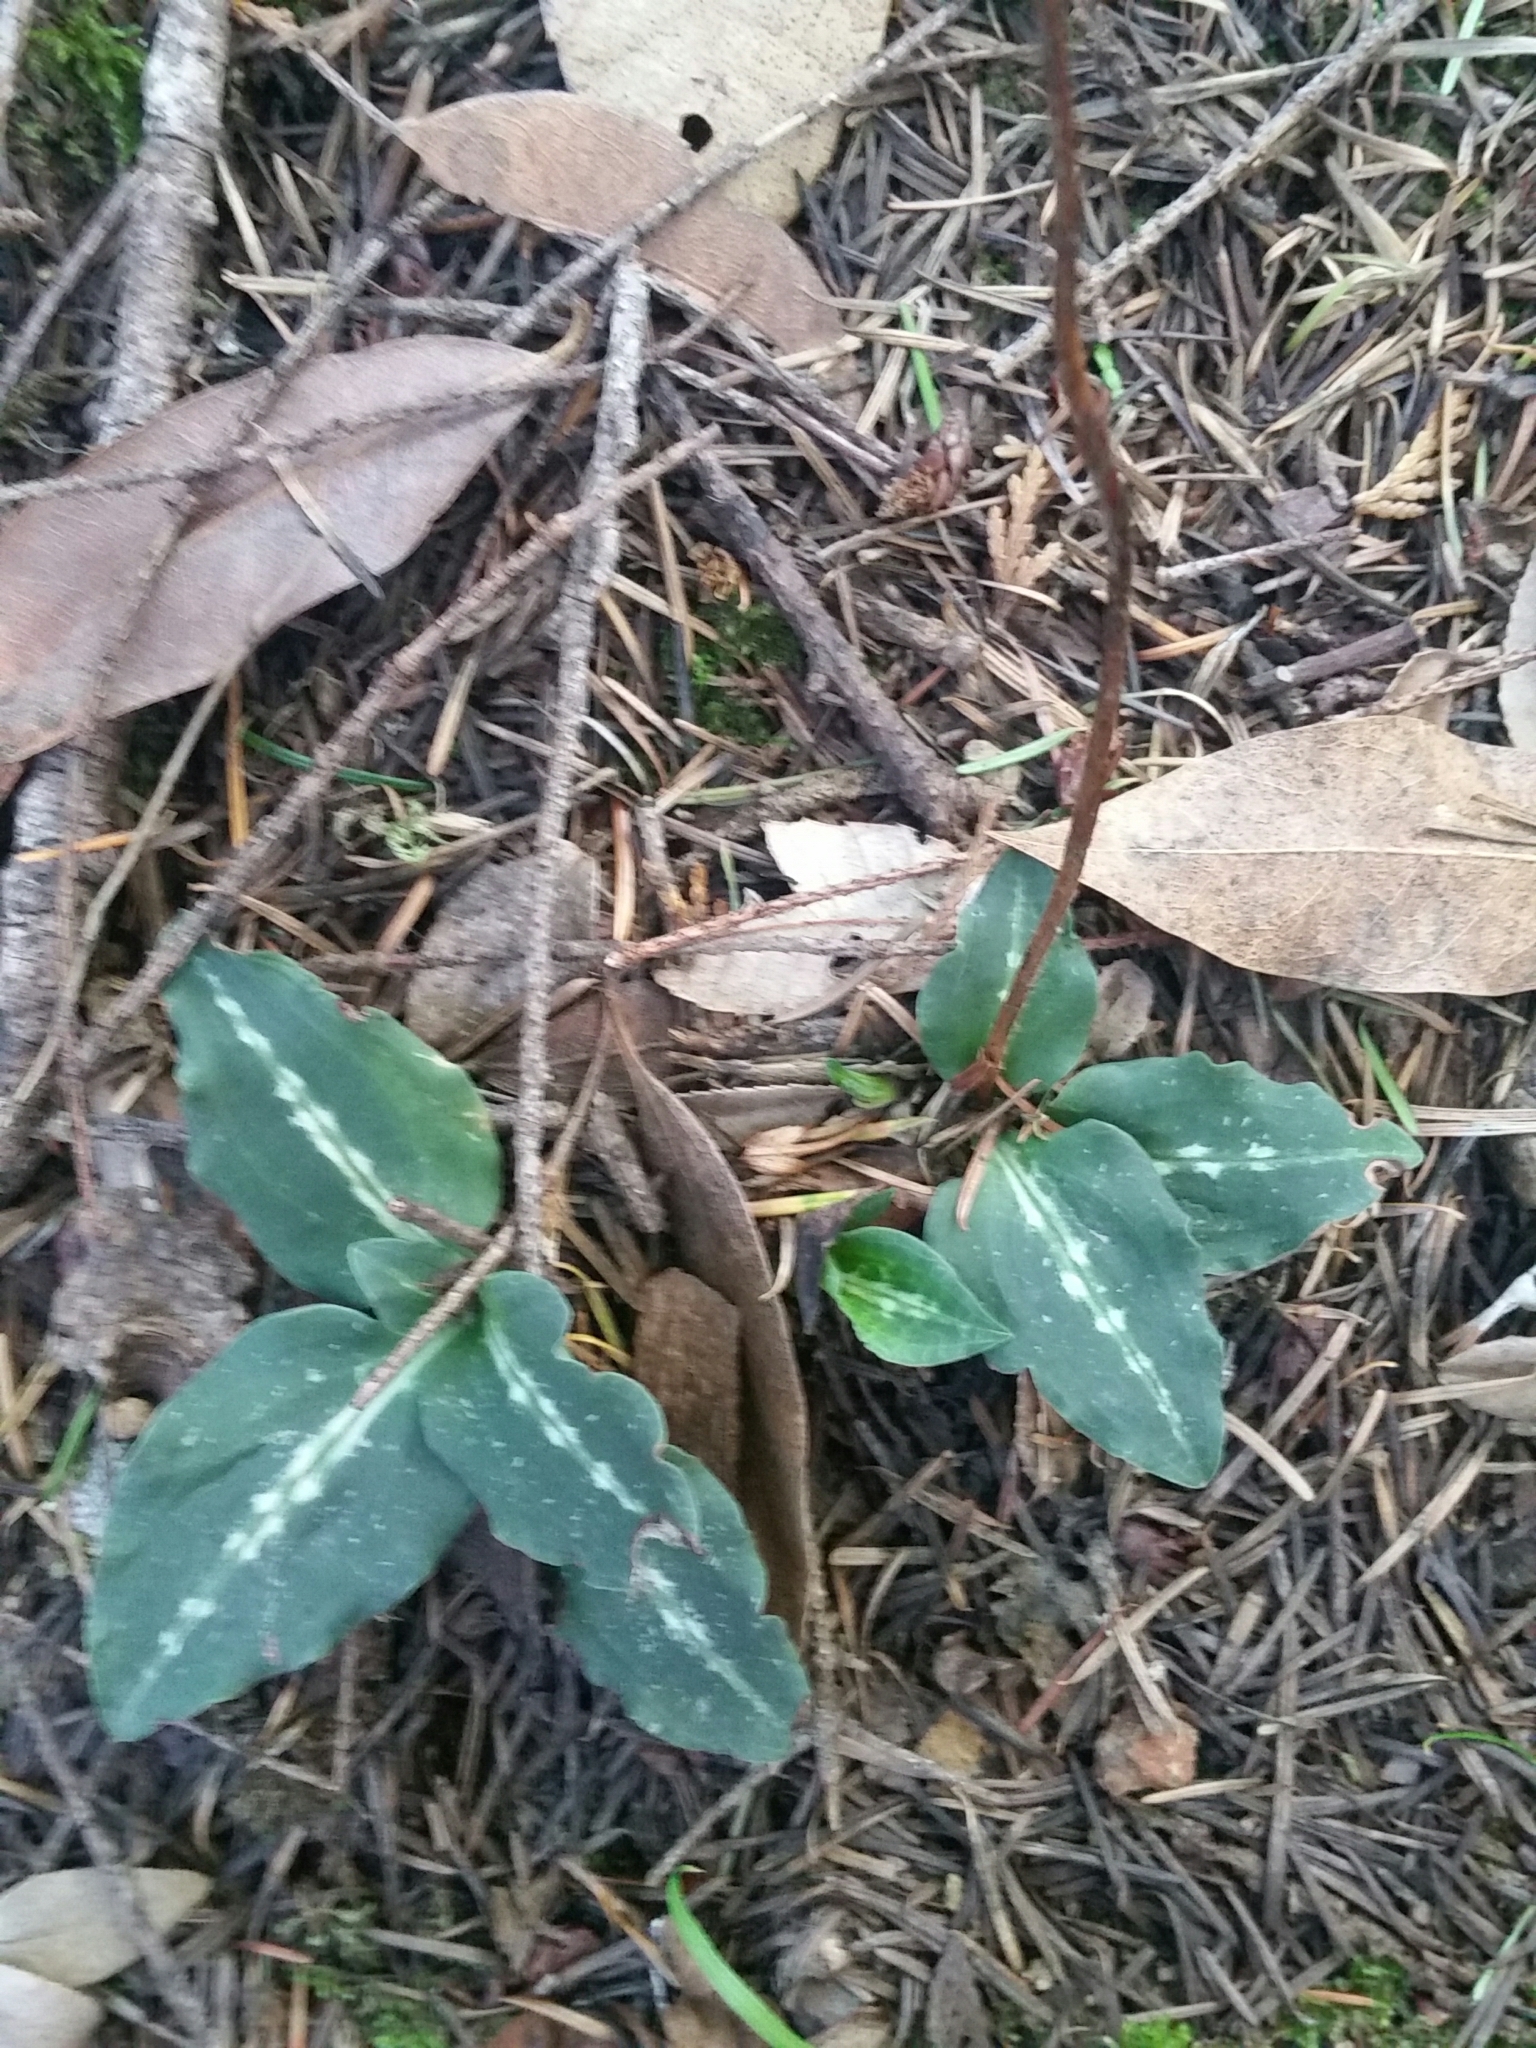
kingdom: Plantae
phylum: Tracheophyta
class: Liliopsida
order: Asparagales
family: Orchidaceae
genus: Goodyera
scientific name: Goodyera oblongifolia
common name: Giant rattlesnake-plantain
